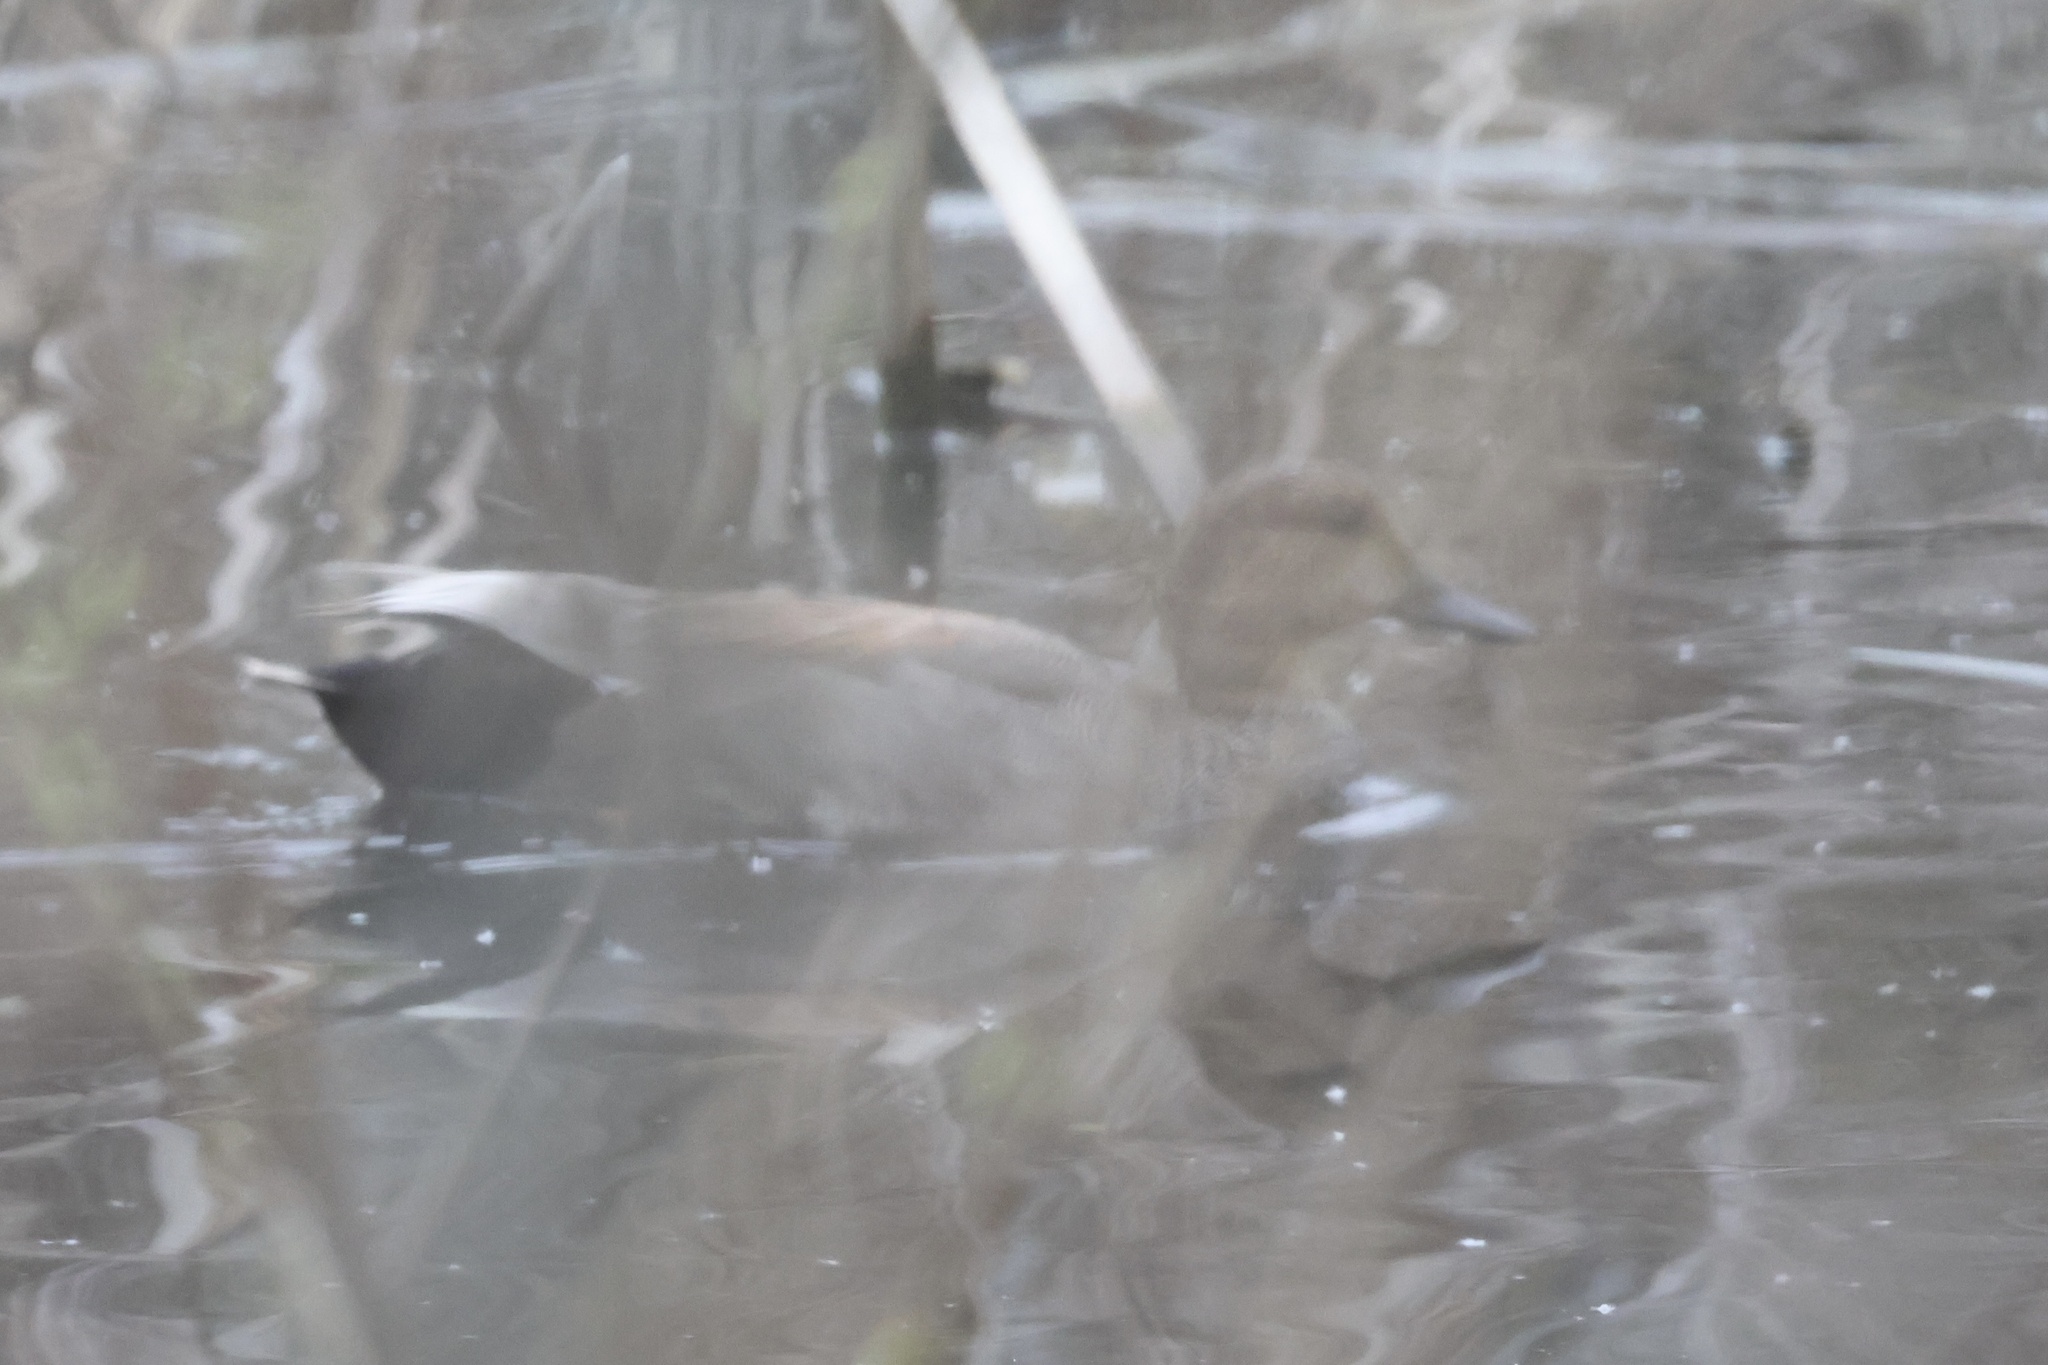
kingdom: Animalia
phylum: Chordata
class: Aves
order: Anseriformes
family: Anatidae
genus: Mareca
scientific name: Mareca strepera
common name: Gadwall
